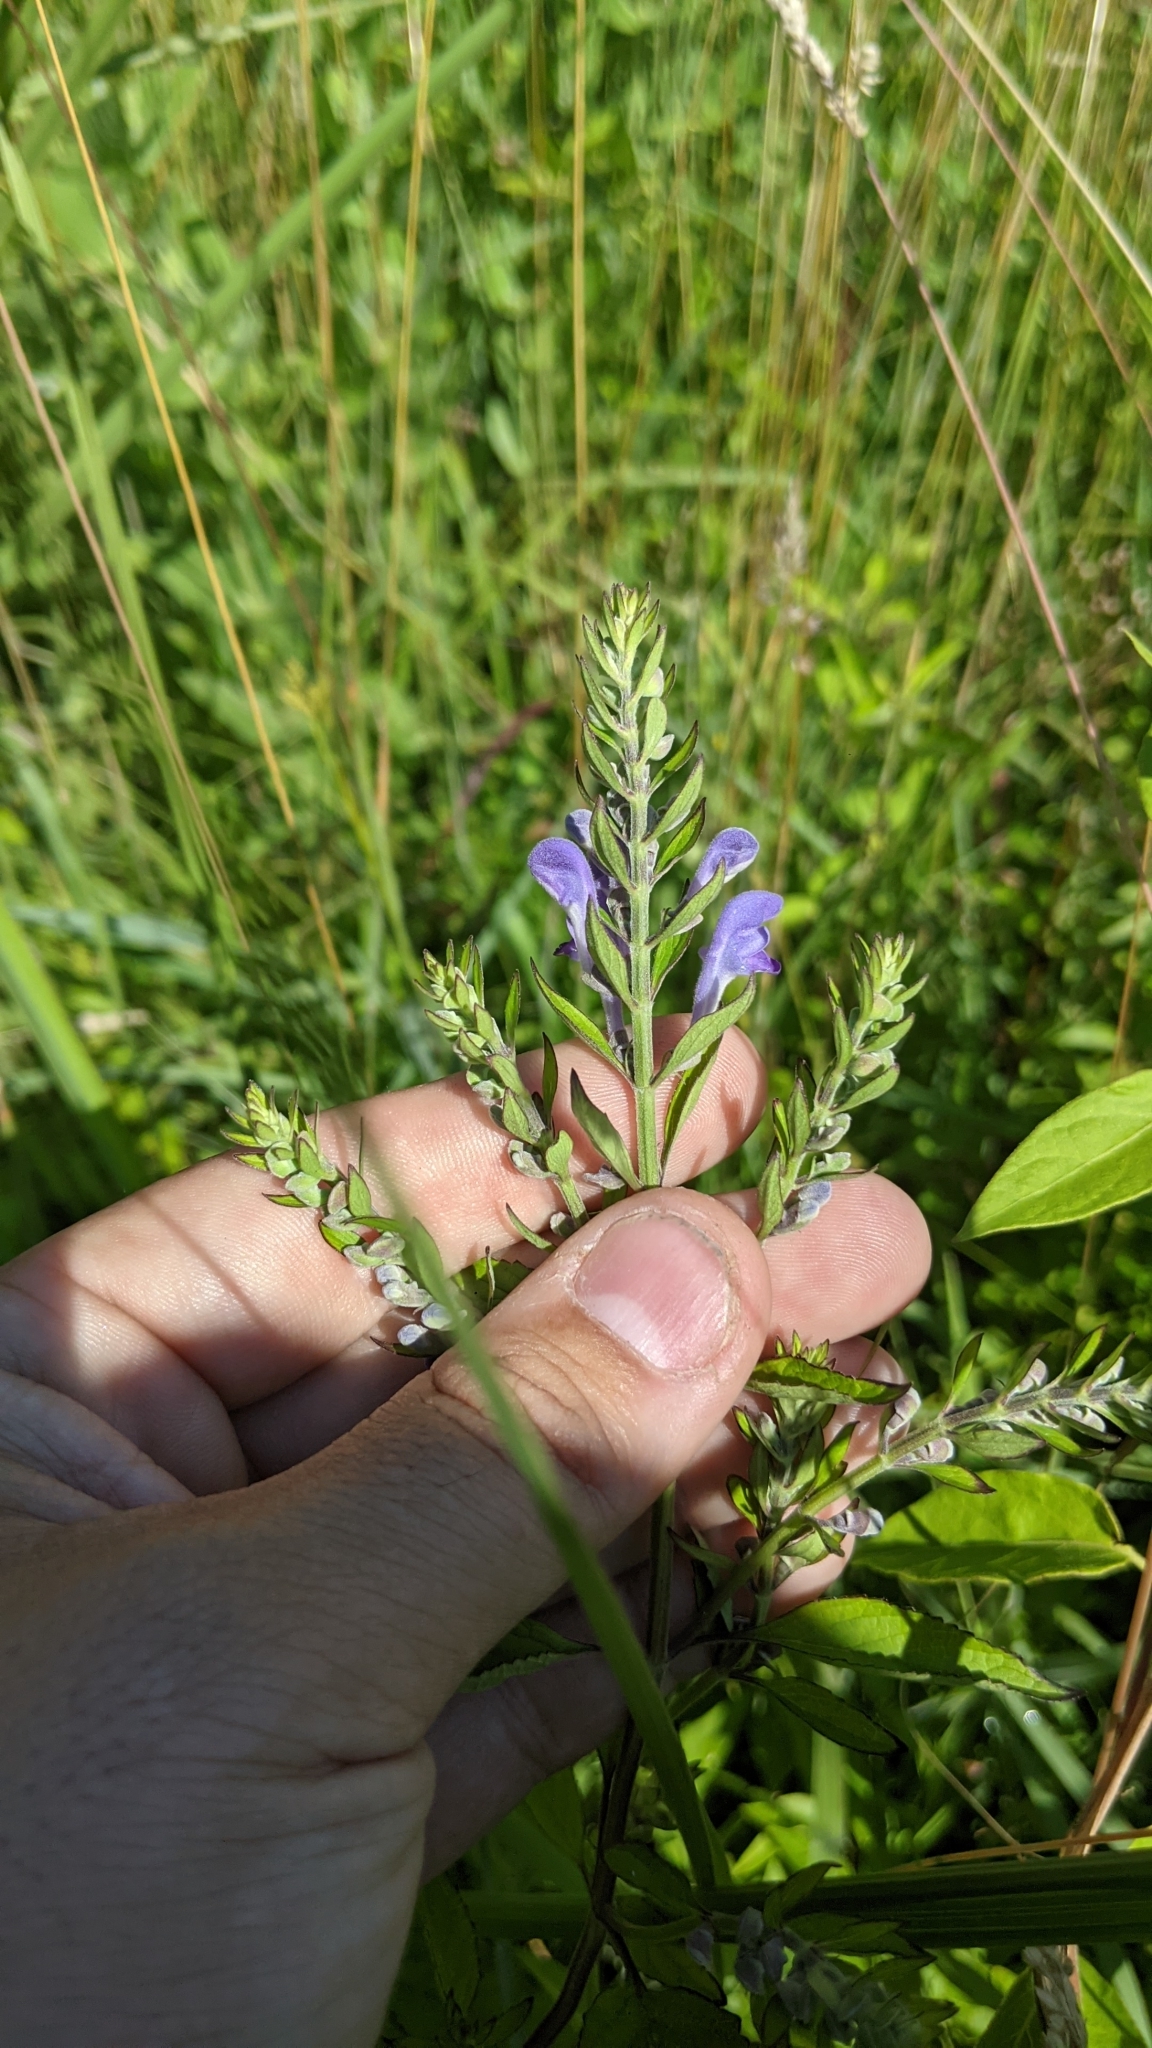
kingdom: Plantae
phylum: Tracheophyta
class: Magnoliopsida
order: Lamiales
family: Lamiaceae
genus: Scutellaria
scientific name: Scutellaria incana
